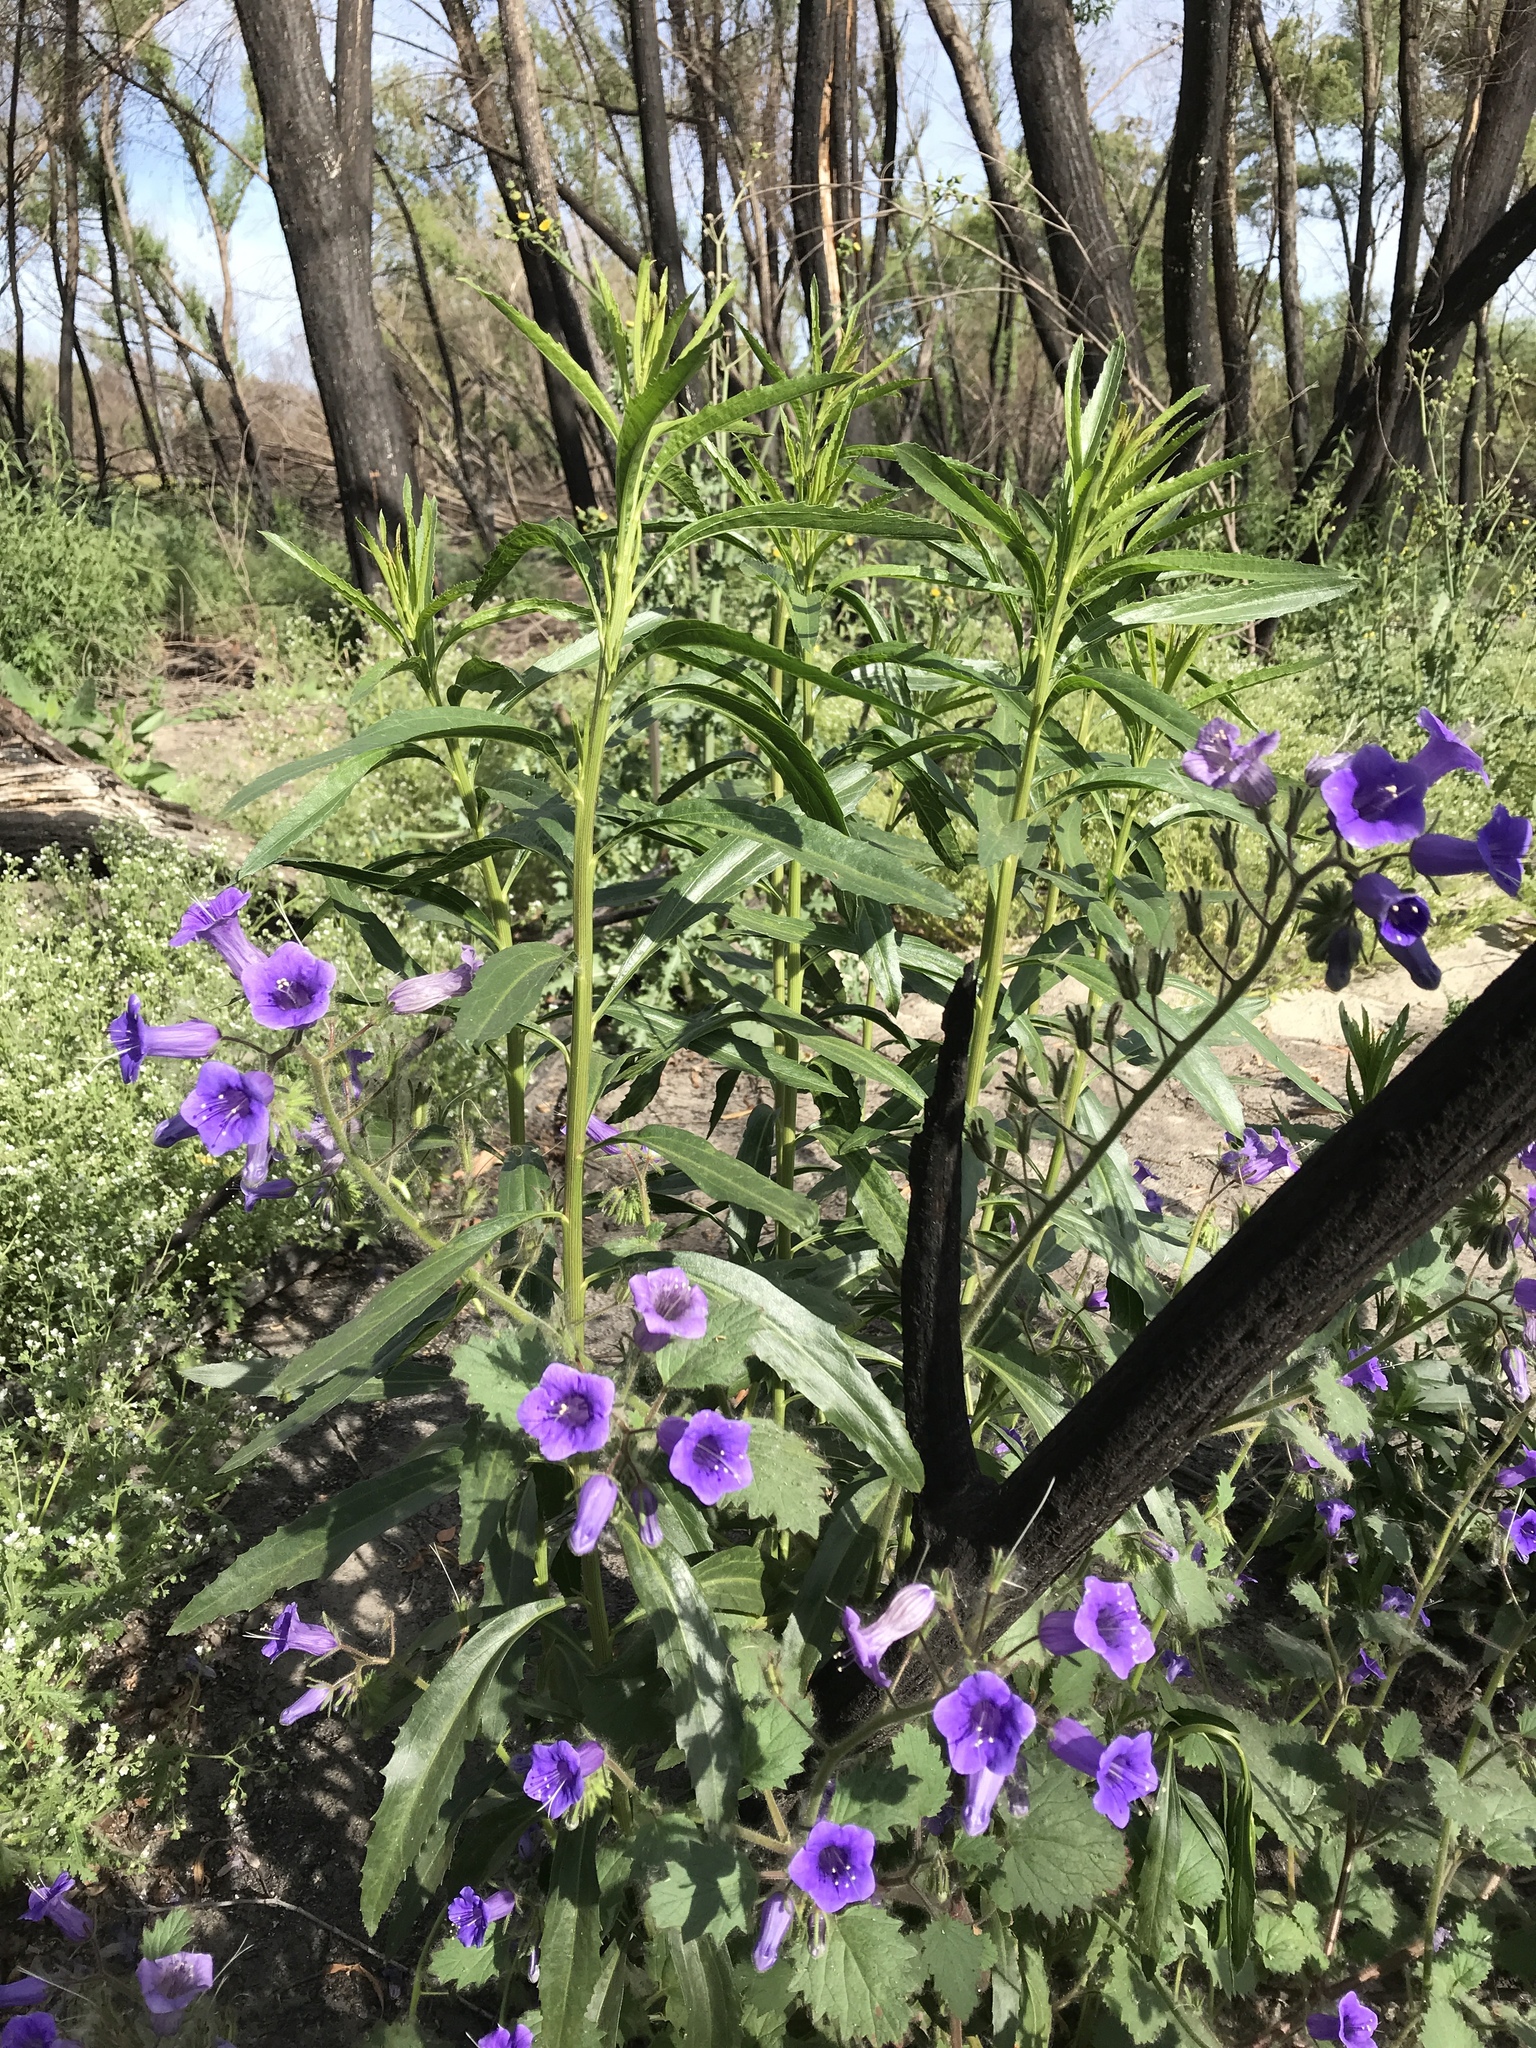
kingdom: Plantae
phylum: Tracheophyta
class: Magnoliopsida
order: Boraginales
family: Hydrophyllaceae
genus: Phacelia
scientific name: Phacelia minor
